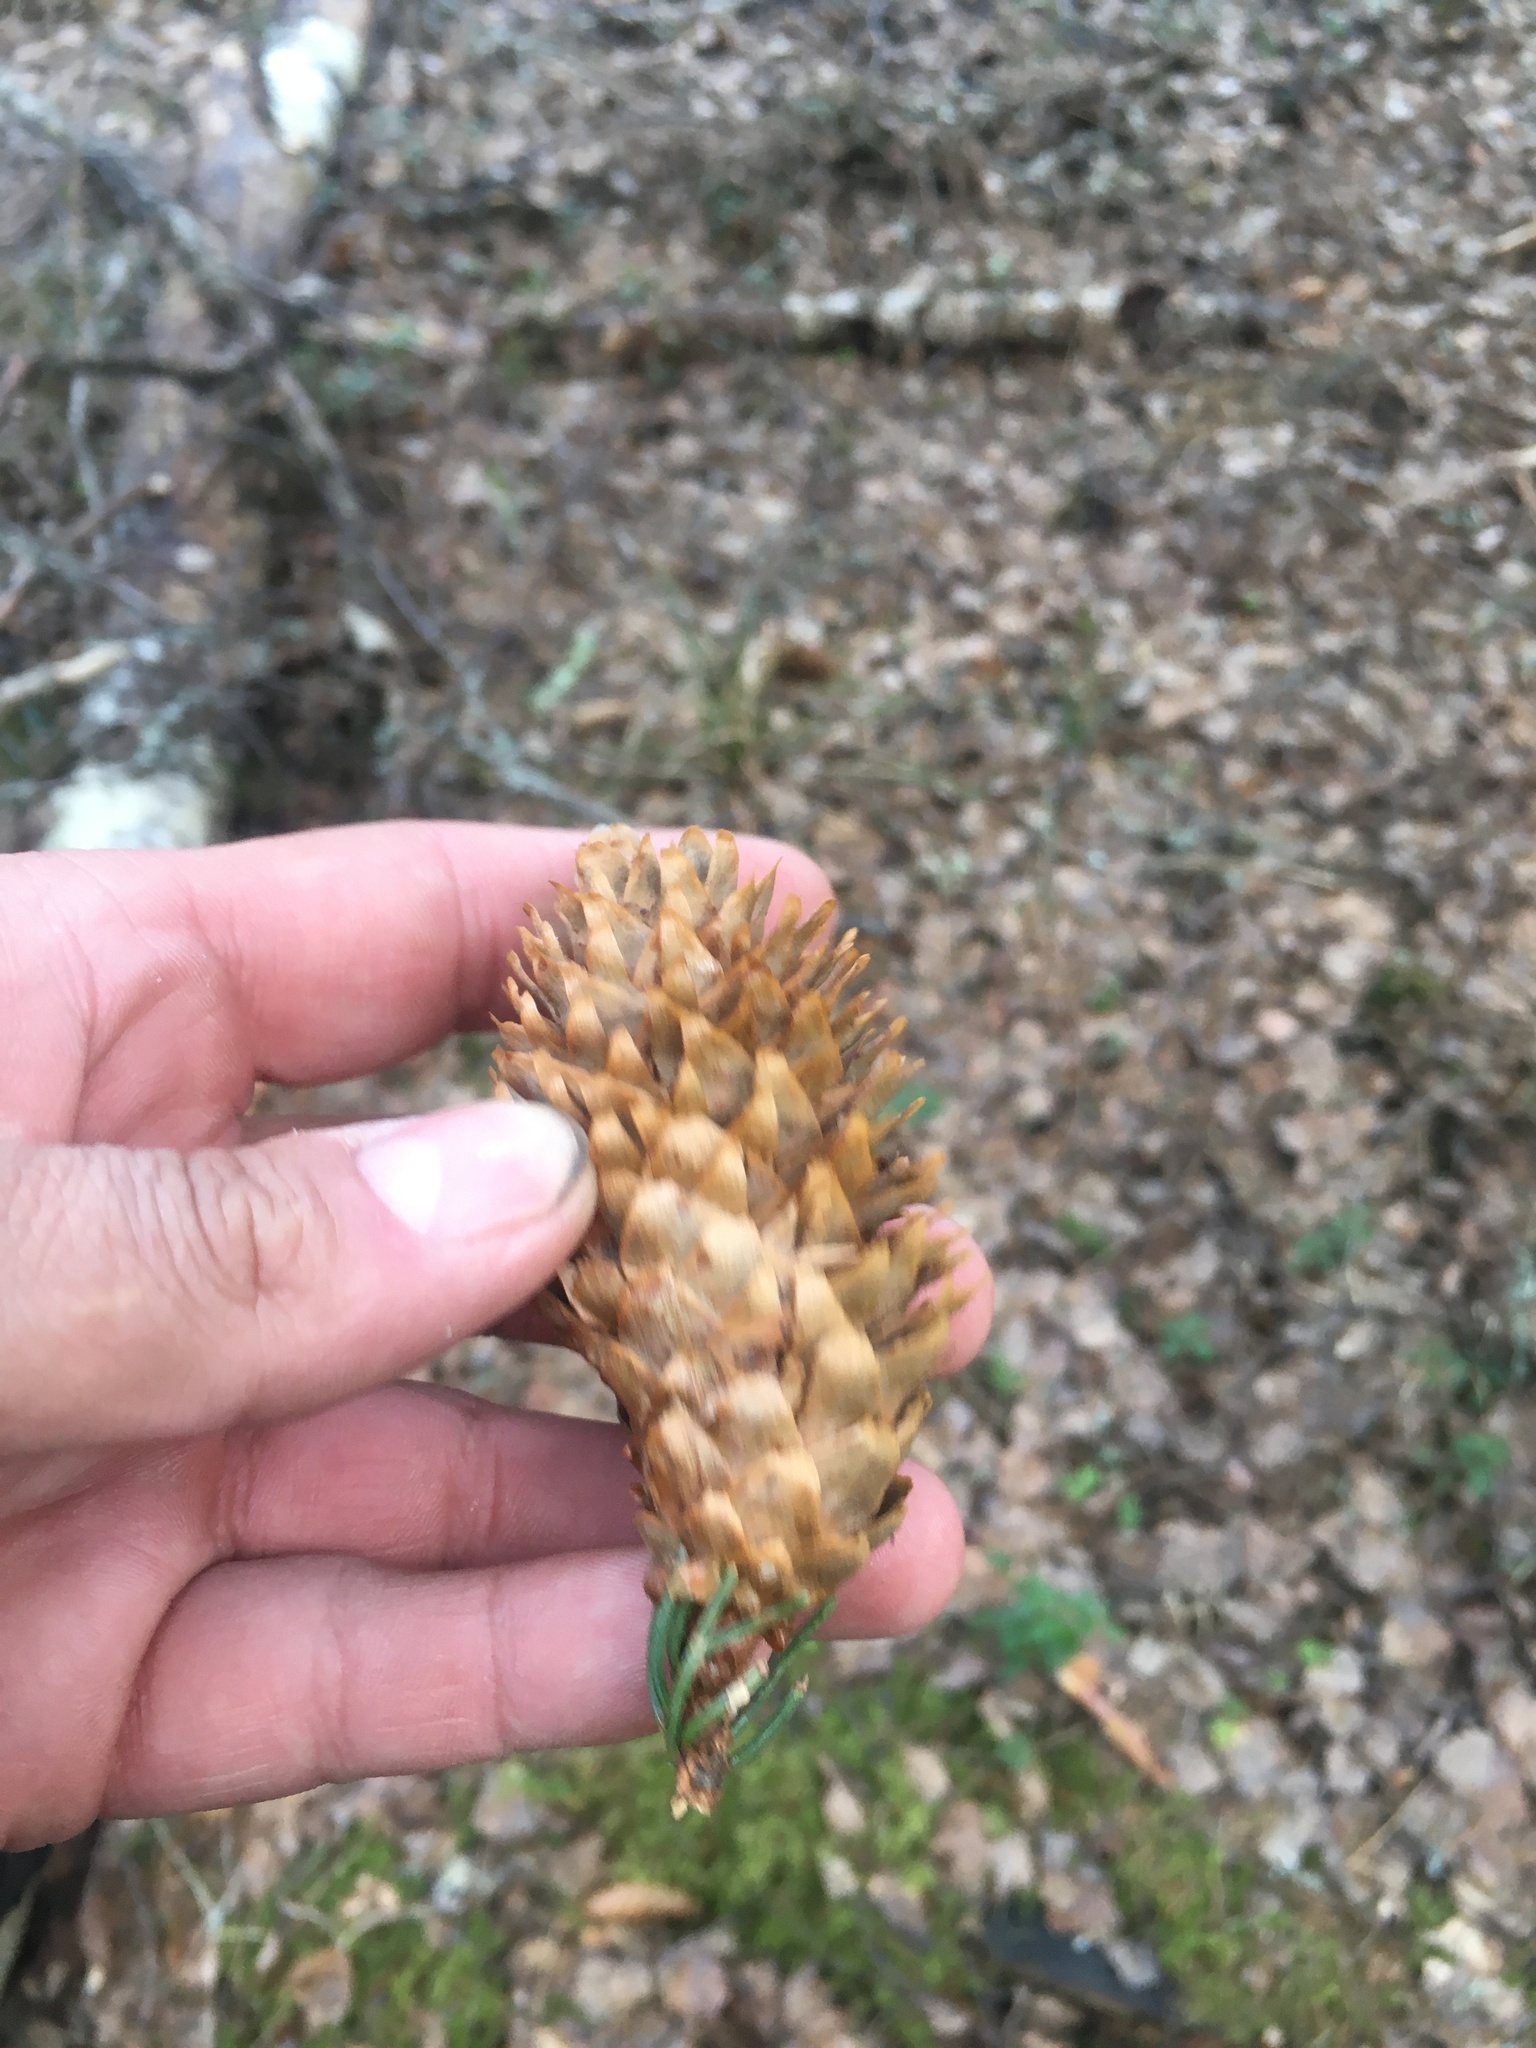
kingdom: Plantae
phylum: Tracheophyta
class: Pinopsida
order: Pinales
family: Pinaceae
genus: Picea
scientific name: Picea abies
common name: Norway spruce
